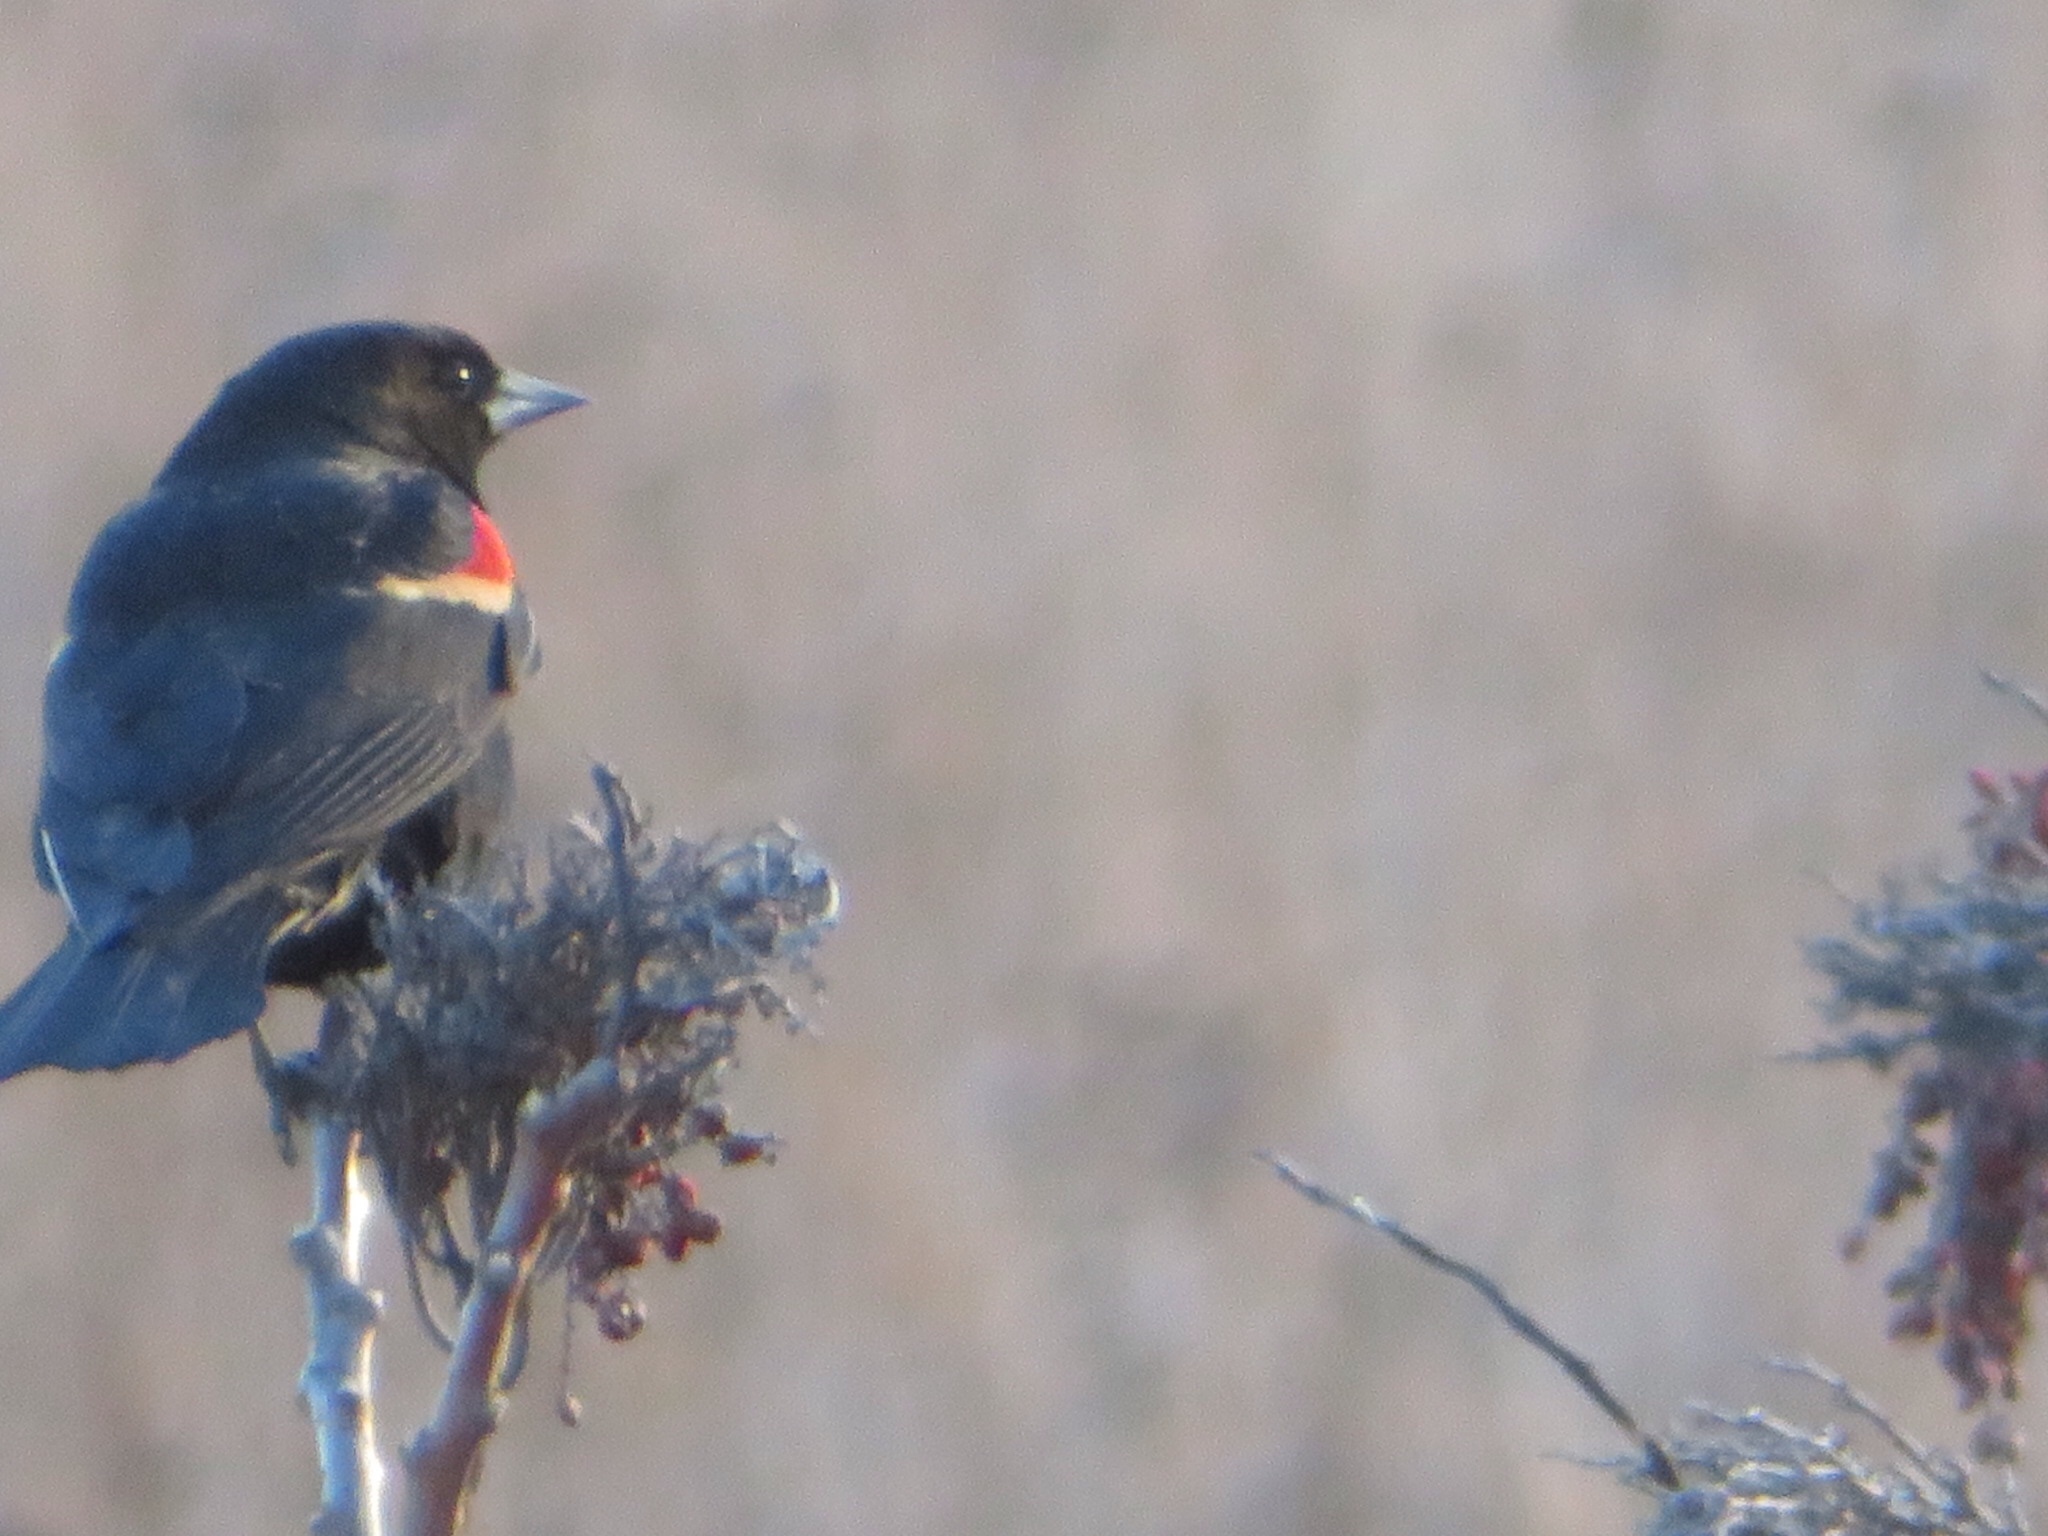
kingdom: Animalia
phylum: Chordata
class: Aves
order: Passeriformes
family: Icteridae
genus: Agelaius
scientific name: Agelaius phoeniceus
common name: Red-winged blackbird
